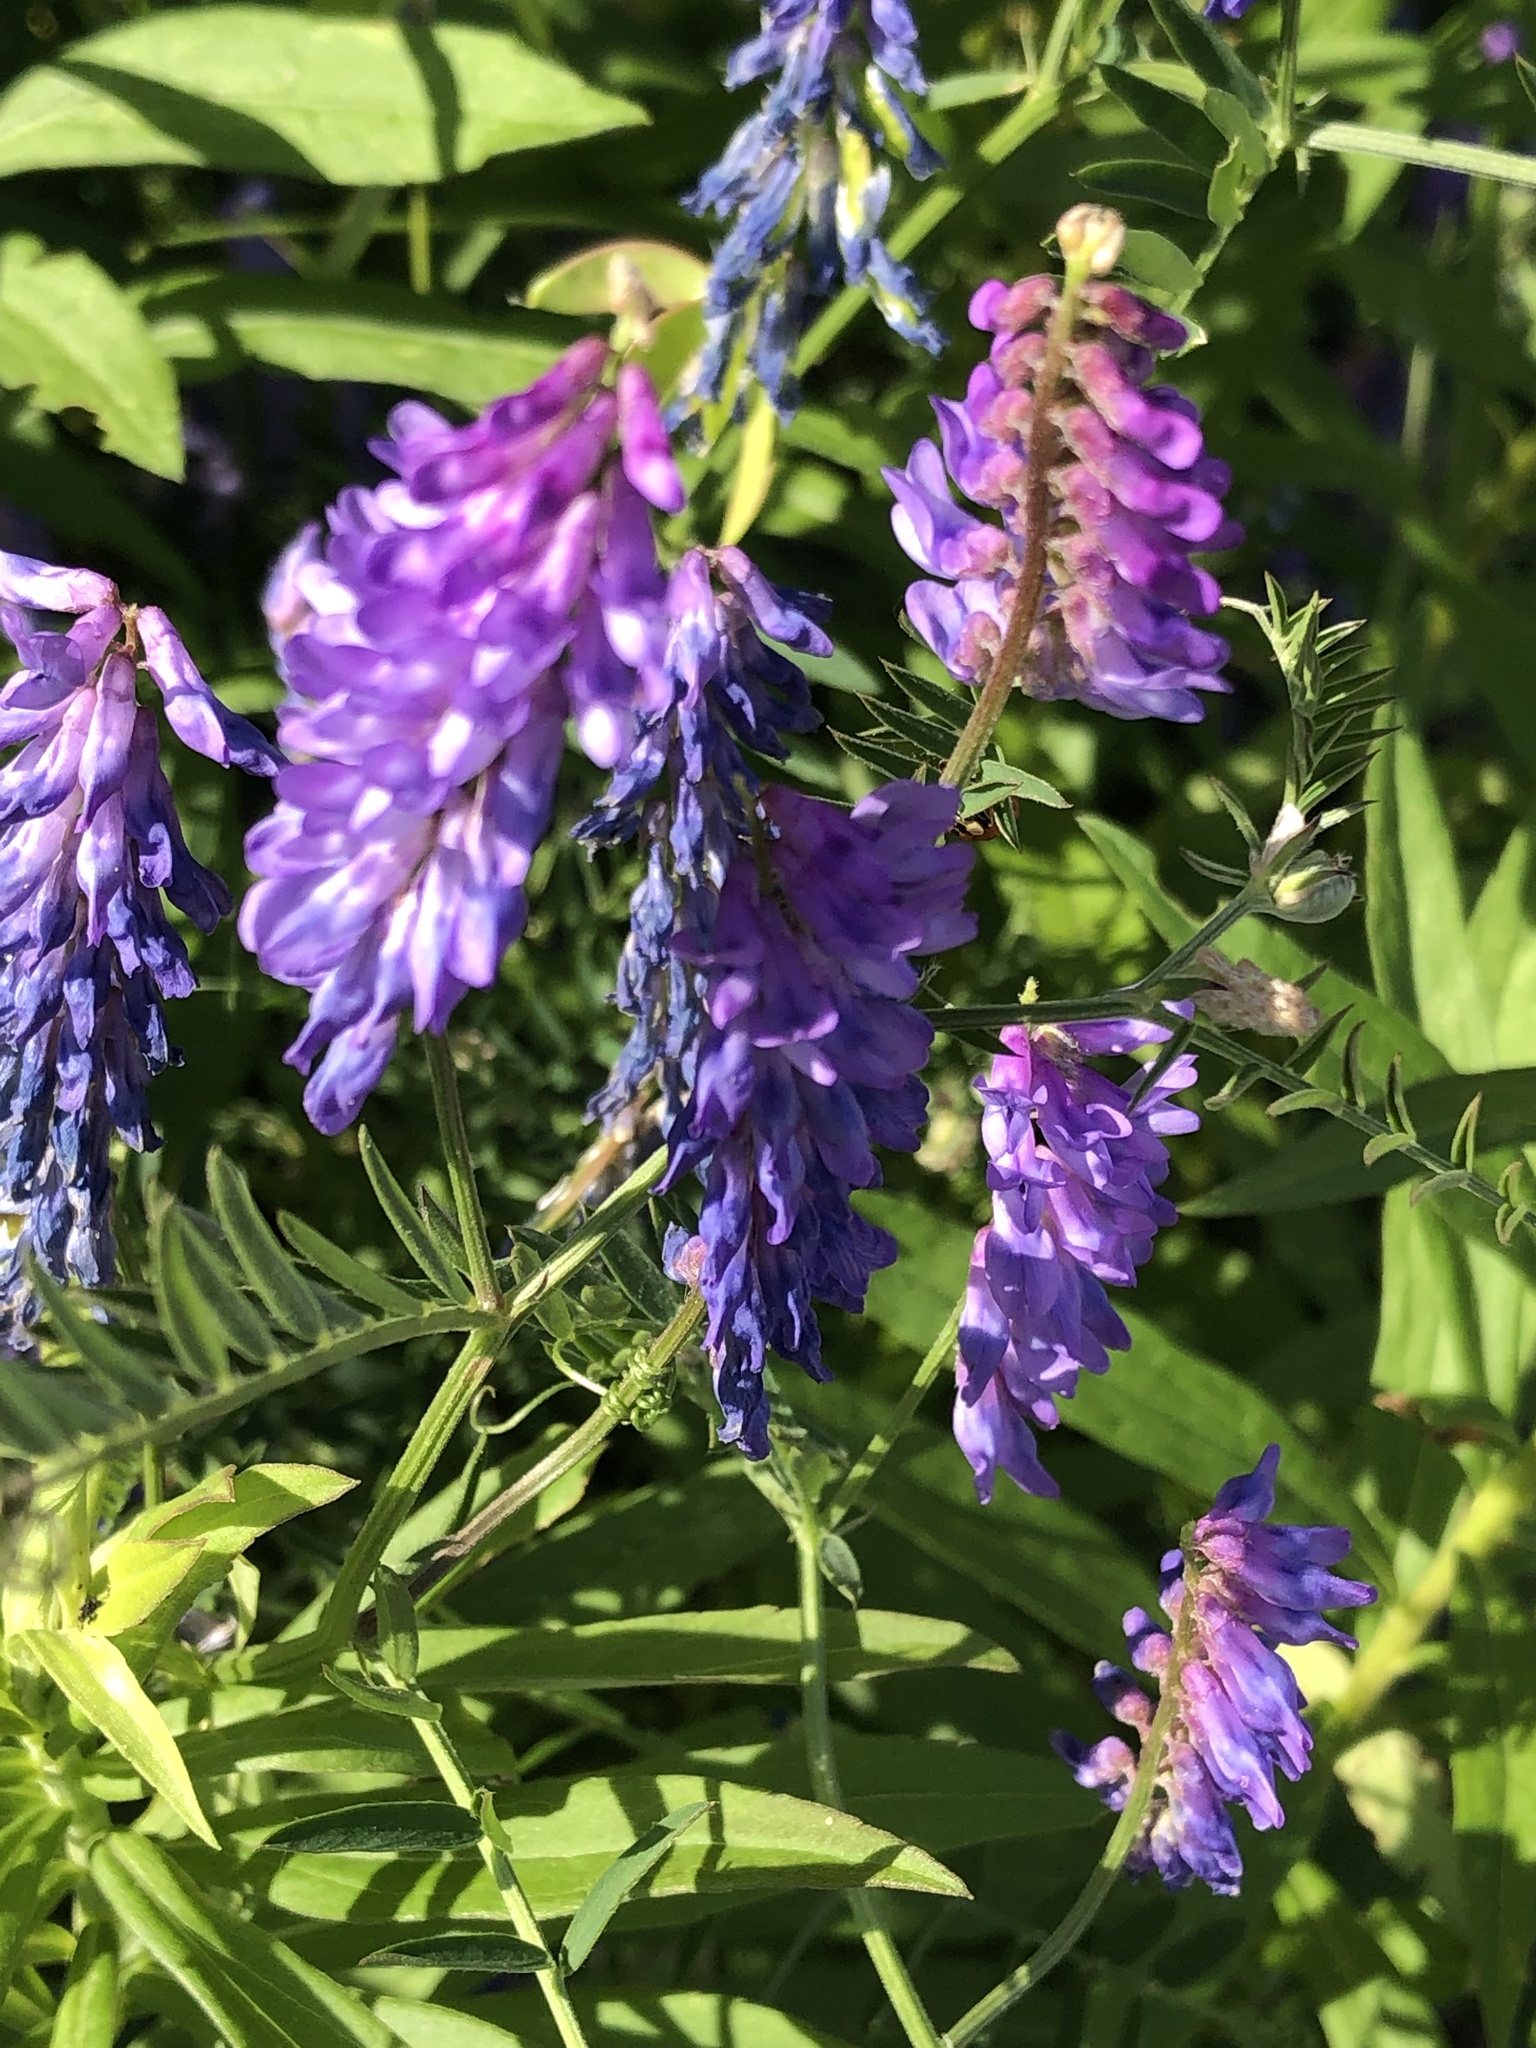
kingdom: Plantae
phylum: Tracheophyta
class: Magnoliopsida
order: Fabales
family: Fabaceae
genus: Vicia
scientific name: Vicia cracca
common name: Bird vetch
